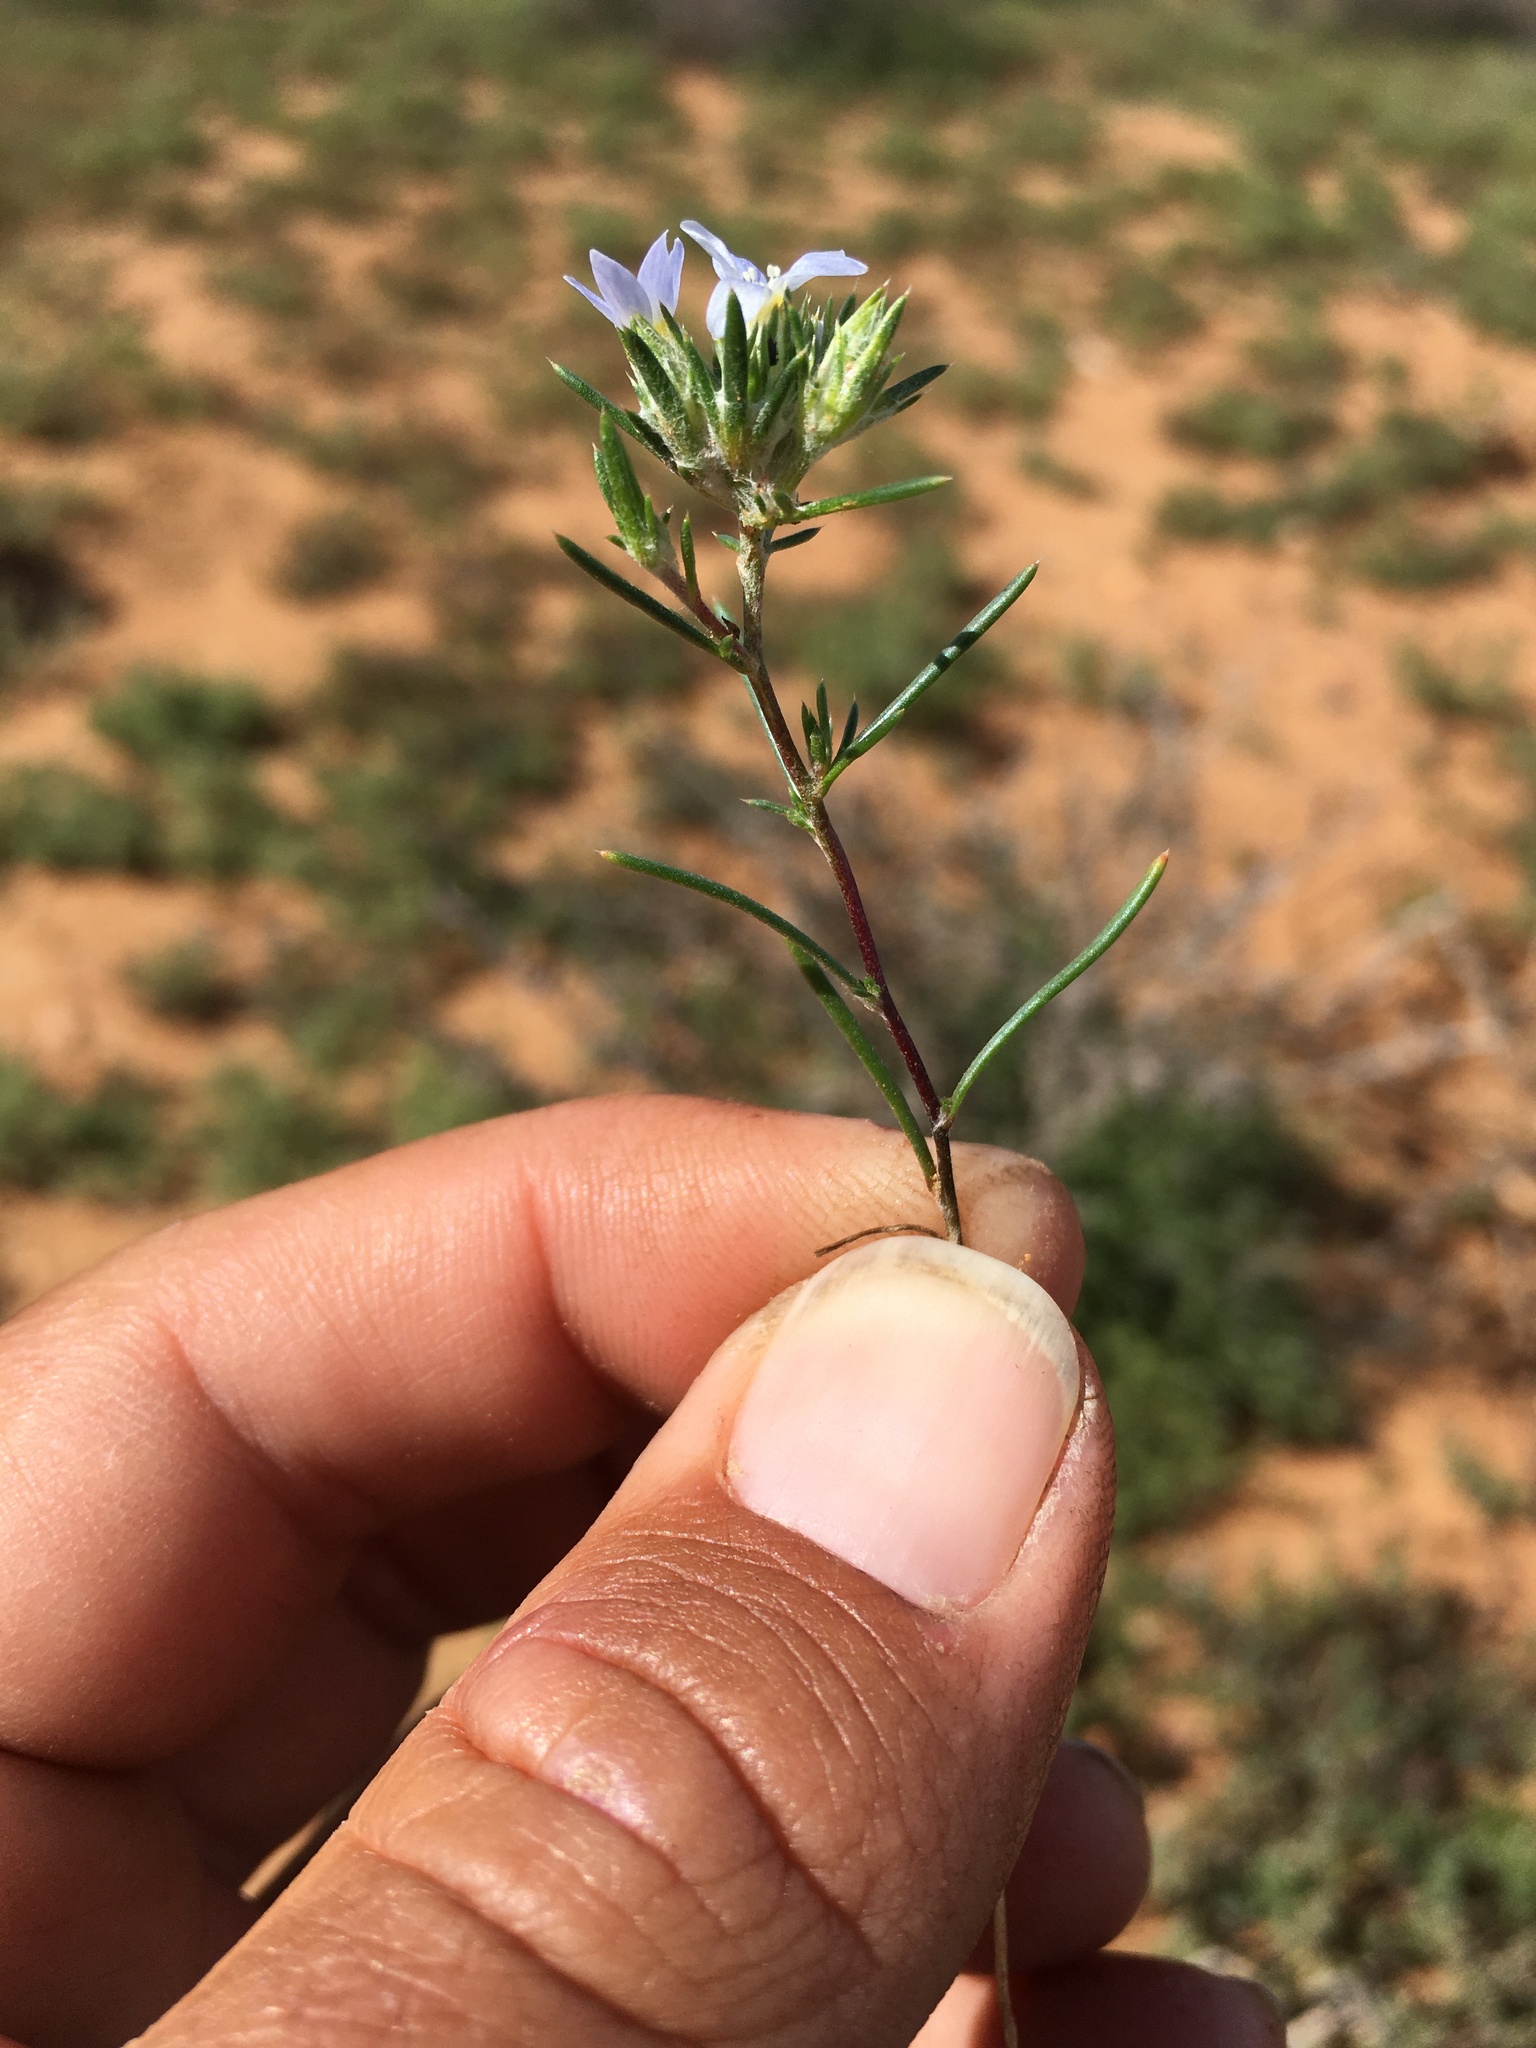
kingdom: Plantae
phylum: Tracheophyta
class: Magnoliopsida
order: Ericales
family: Polemoniaceae
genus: Eriastrum
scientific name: Eriastrum diffusum
